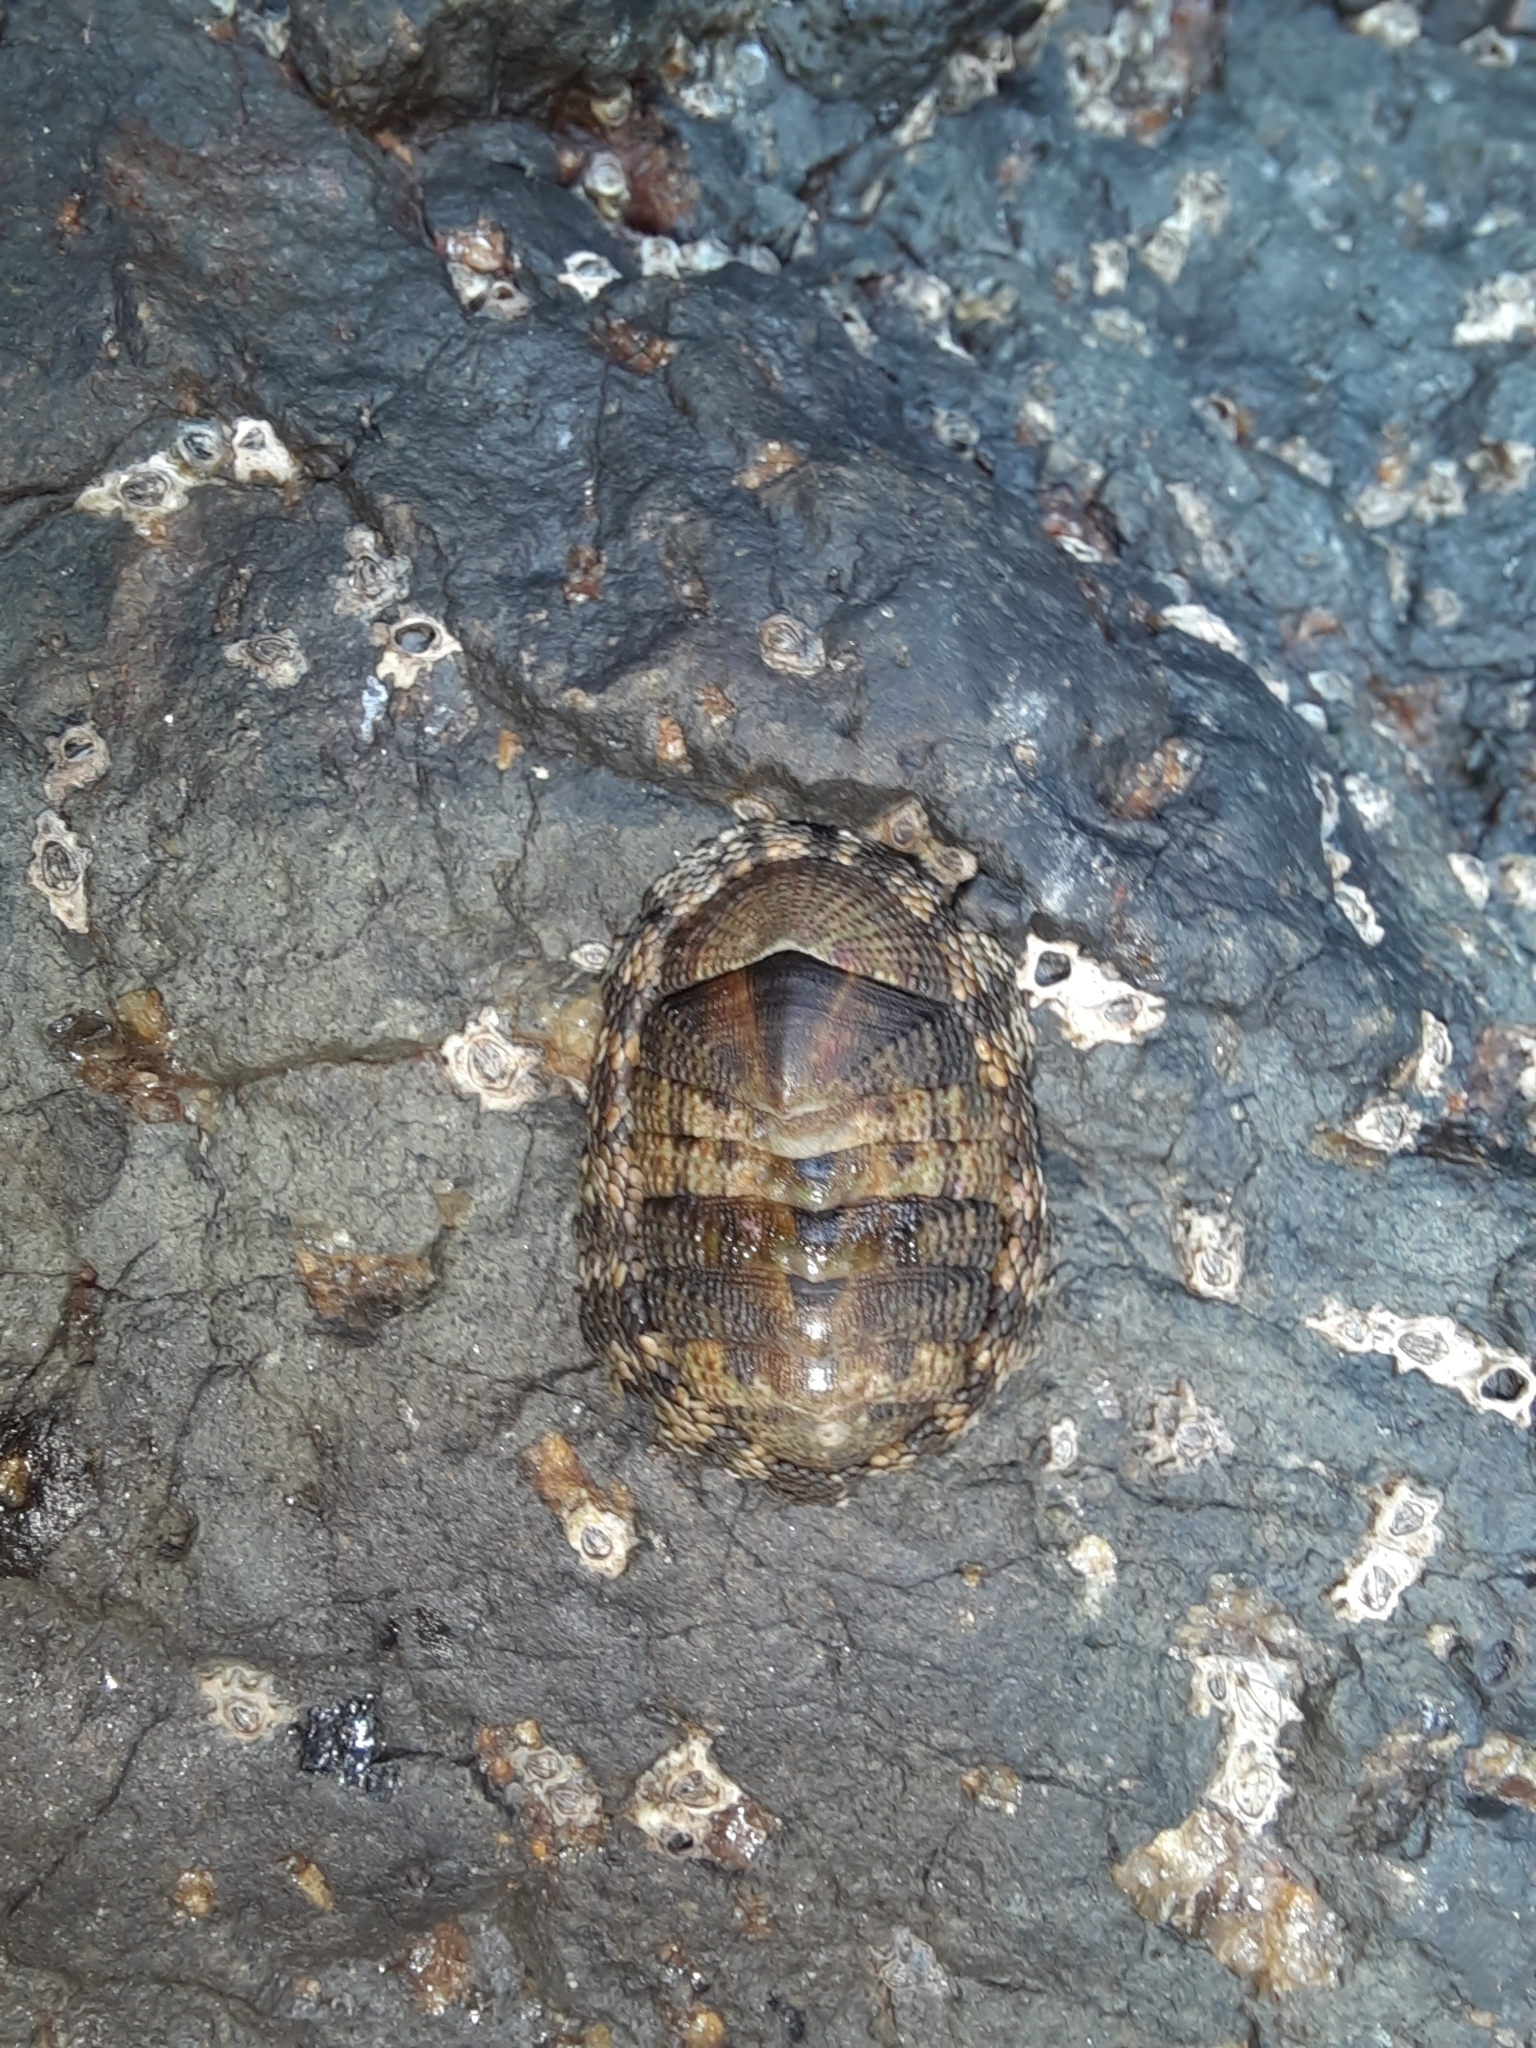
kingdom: Animalia
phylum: Mollusca
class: Polyplacophora
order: Chitonida
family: Chitonidae
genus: Sypharochiton
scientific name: Sypharochiton pelliserpentis
